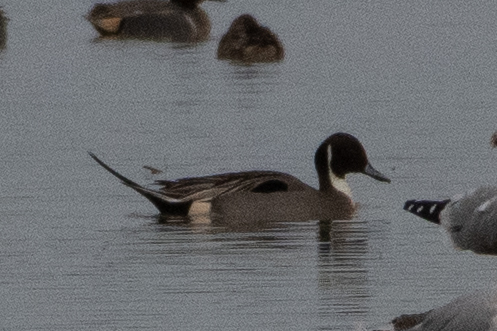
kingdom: Animalia
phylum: Chordata
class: Aves
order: Anseriformes
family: Anatidae
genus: Anas
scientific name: Anas acuta
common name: Northern pintail
